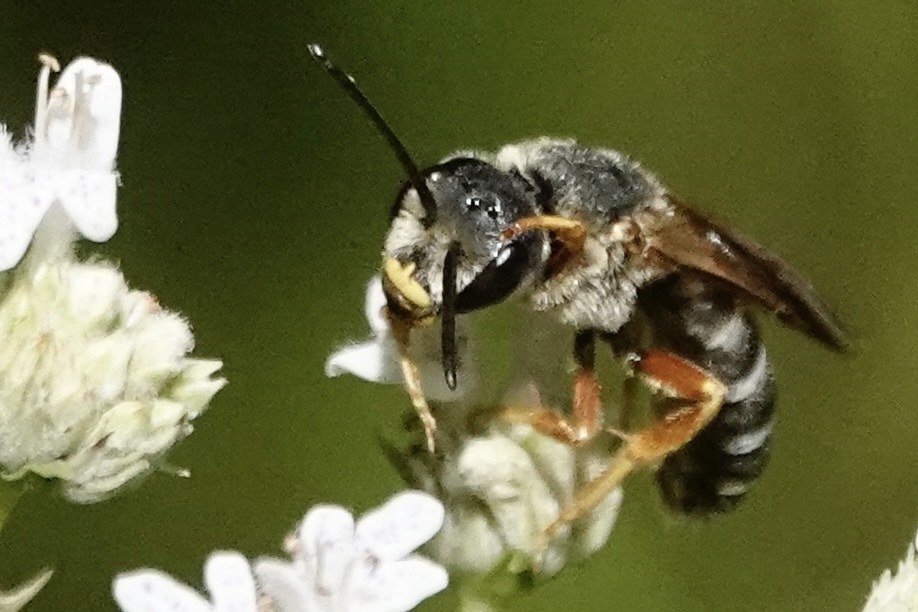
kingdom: Animalia
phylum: Arthropoda
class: Insecta
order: Hymenoptera
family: Halictidae
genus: Halictus
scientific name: Halictus parallelus
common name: Parallel-striped sweat bee
